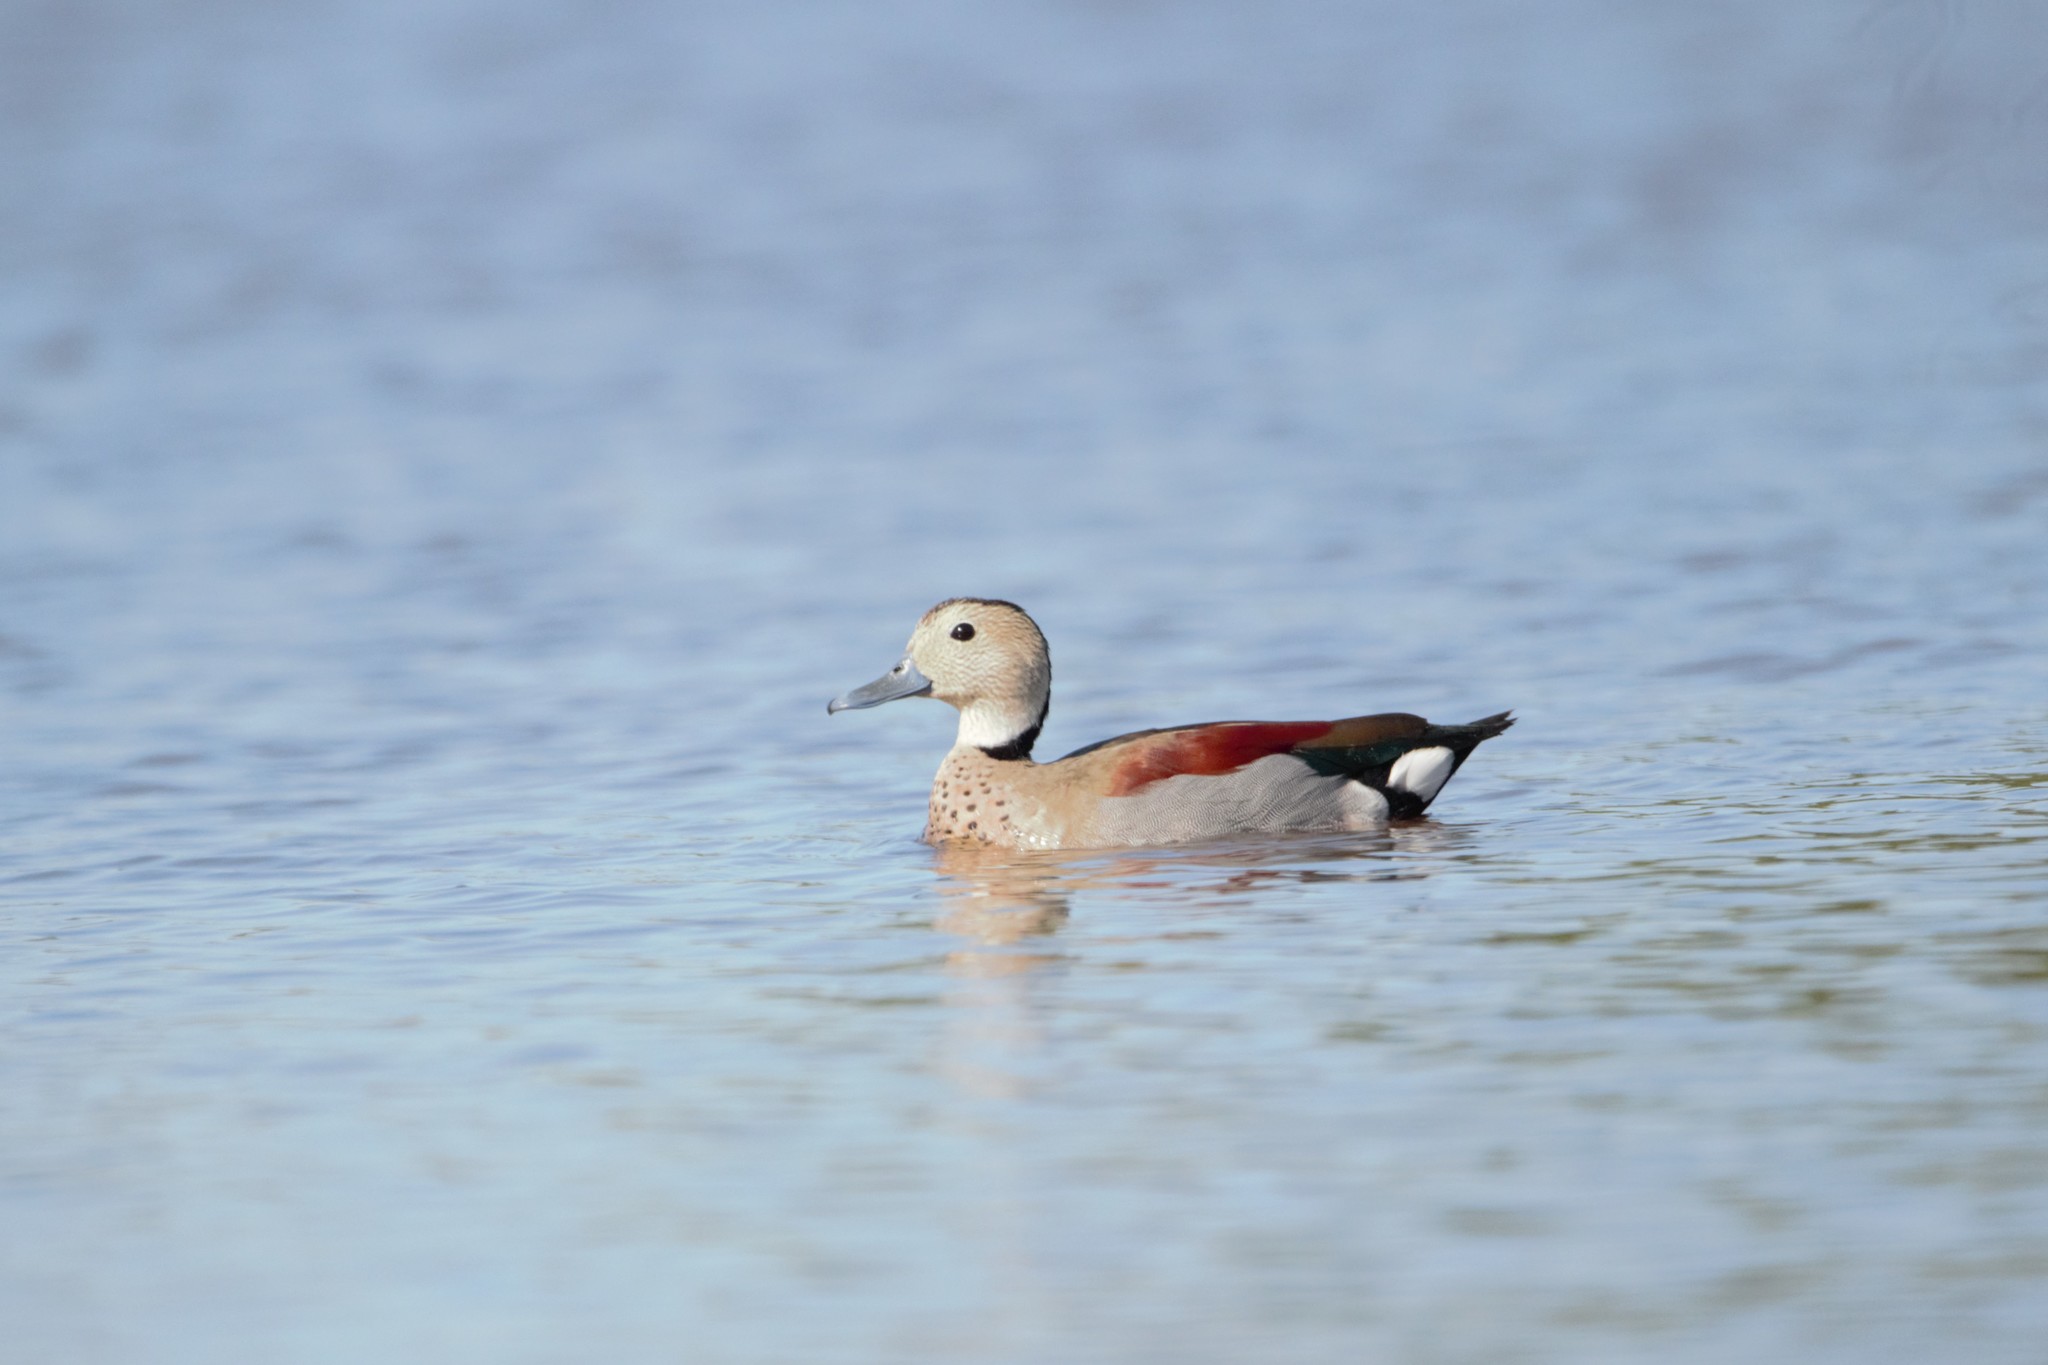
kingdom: Animalia
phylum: Chordata
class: Aves
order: Anseriformes
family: Anatidae
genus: Callonetta
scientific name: Callonetta leucophrys
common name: Ringed teal
